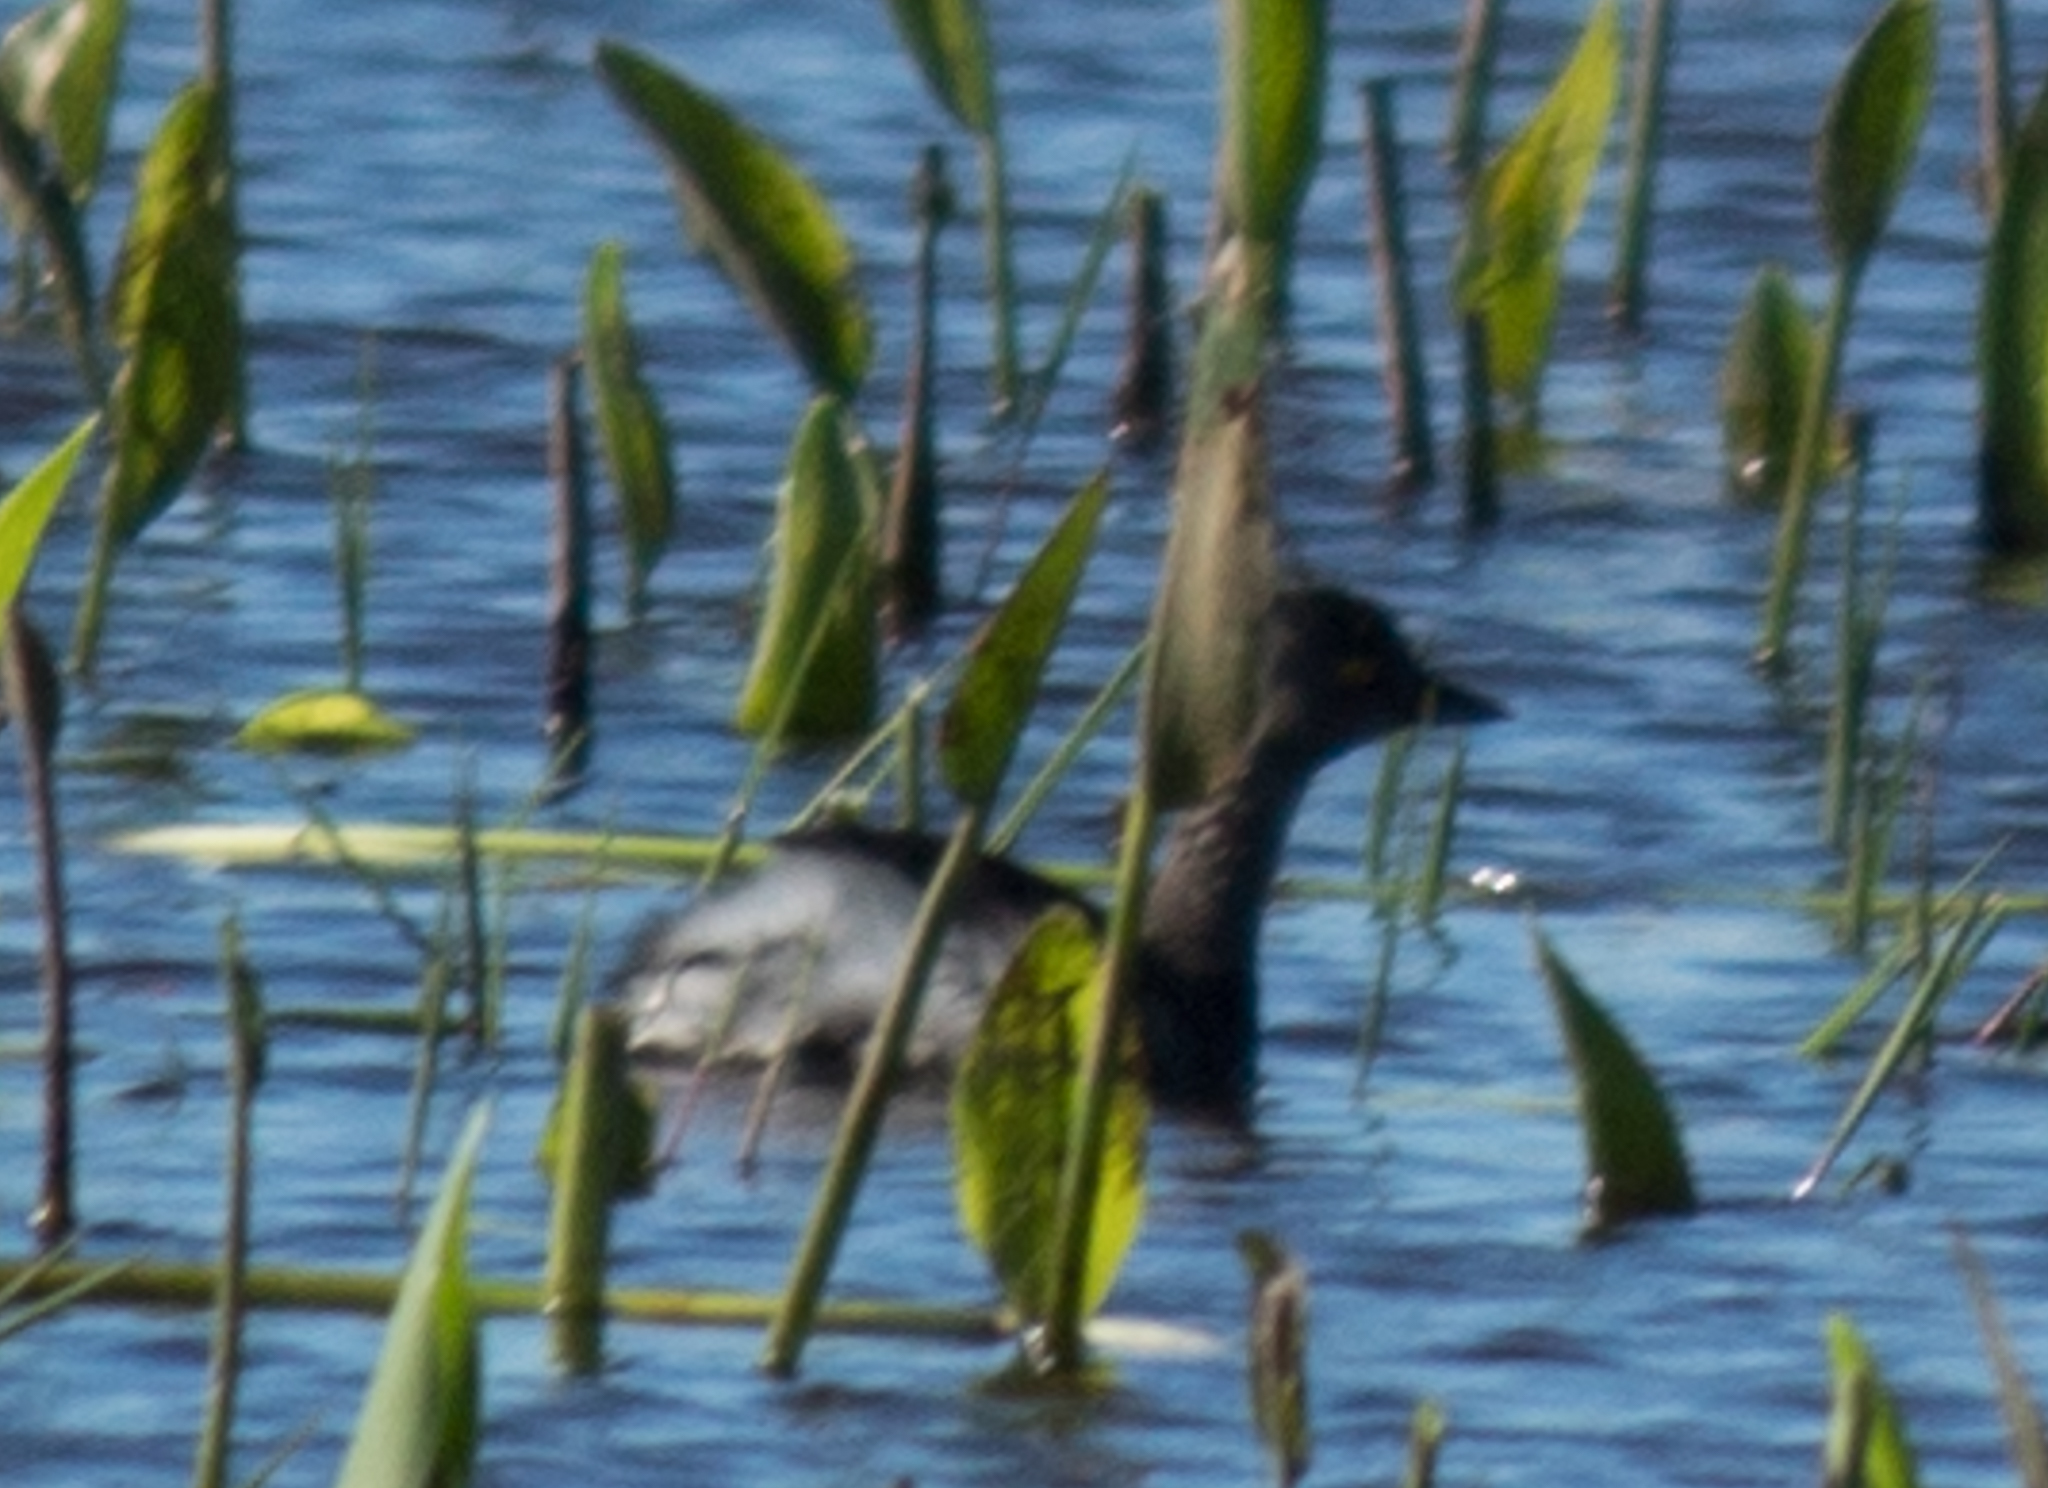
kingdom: Animalia
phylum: Chordata
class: Aves
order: Podicipediformes
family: Podicipedidae
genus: Tachybaptus
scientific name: Tachybaptus dominicus
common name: Least grebe
